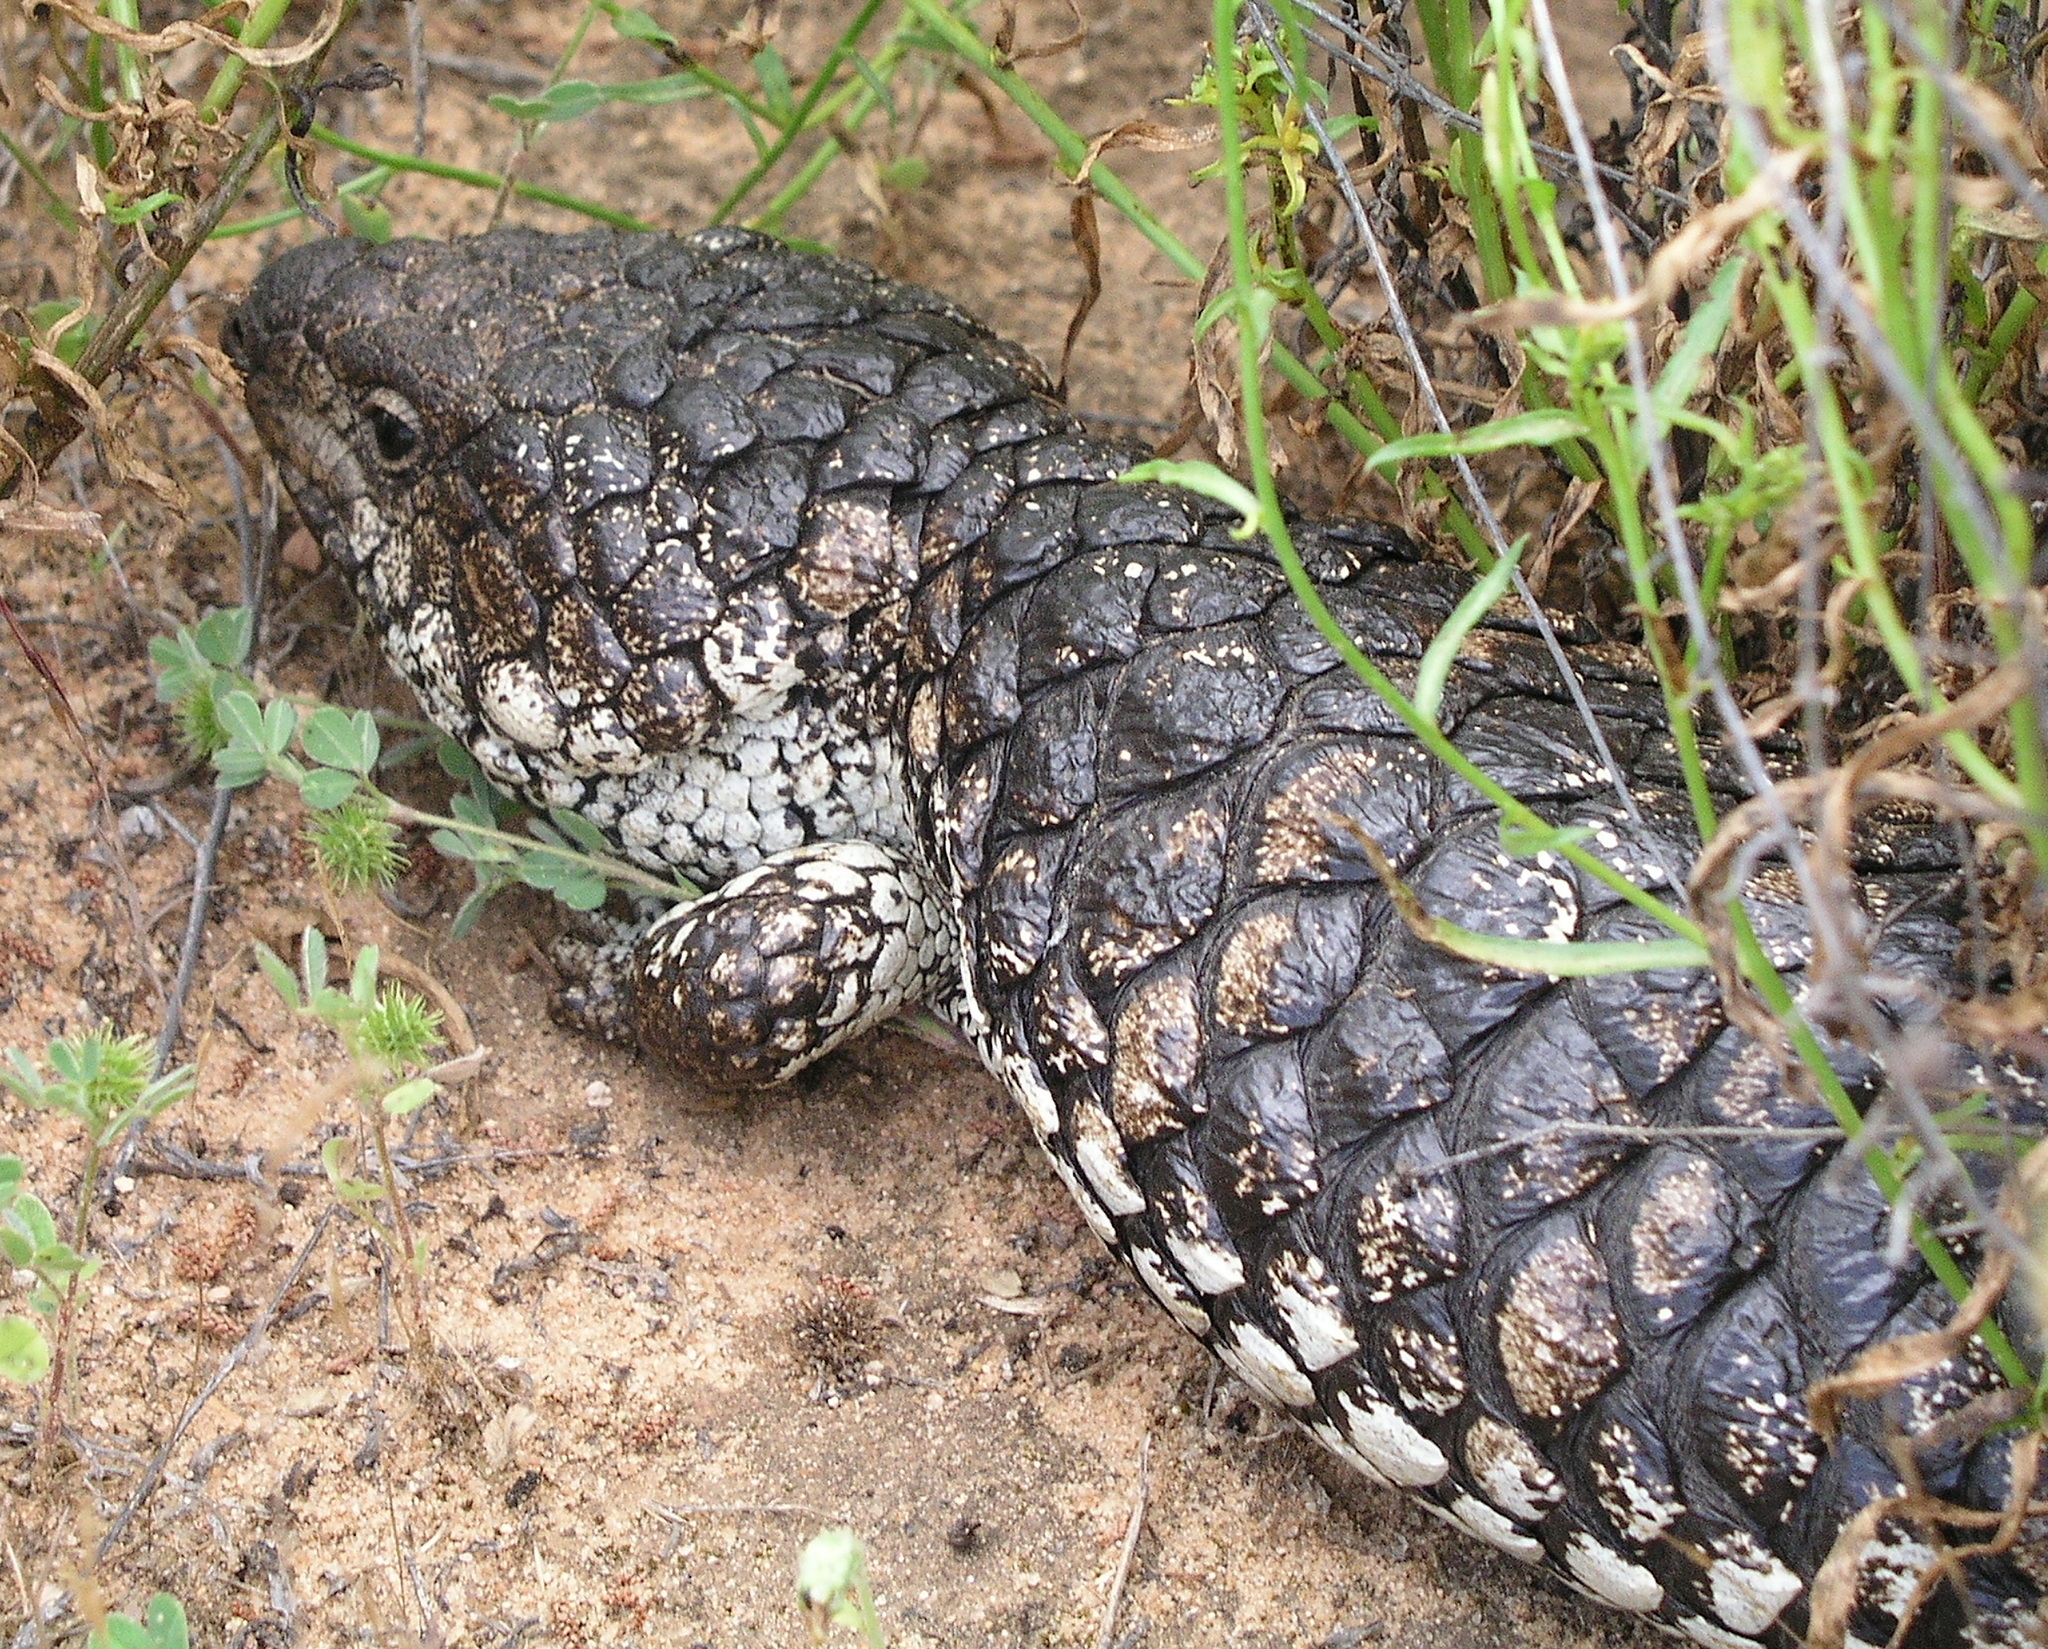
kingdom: Animalia
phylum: Chordata
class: Squamata
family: Scincidae
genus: Tiliqua
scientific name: Tiliqua rugosa
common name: Pinecone lizard
